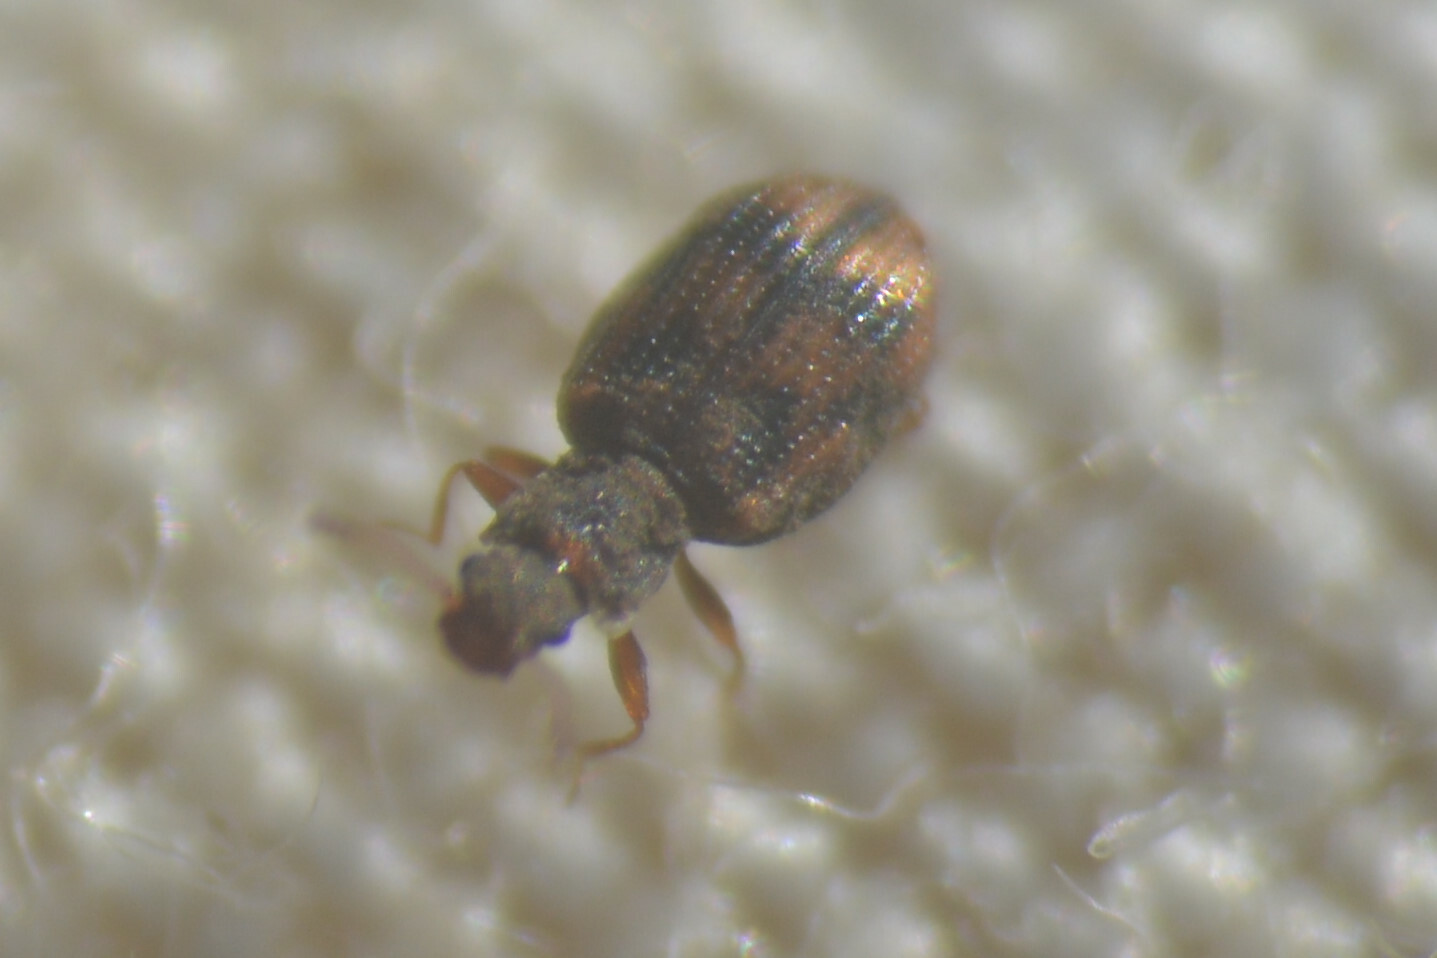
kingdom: Animalia
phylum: Arthropoda
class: Insecta
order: Coleoptera
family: Latridiidae
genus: Cartodere
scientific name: Cartodere bifasciata
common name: Plaster beetle
